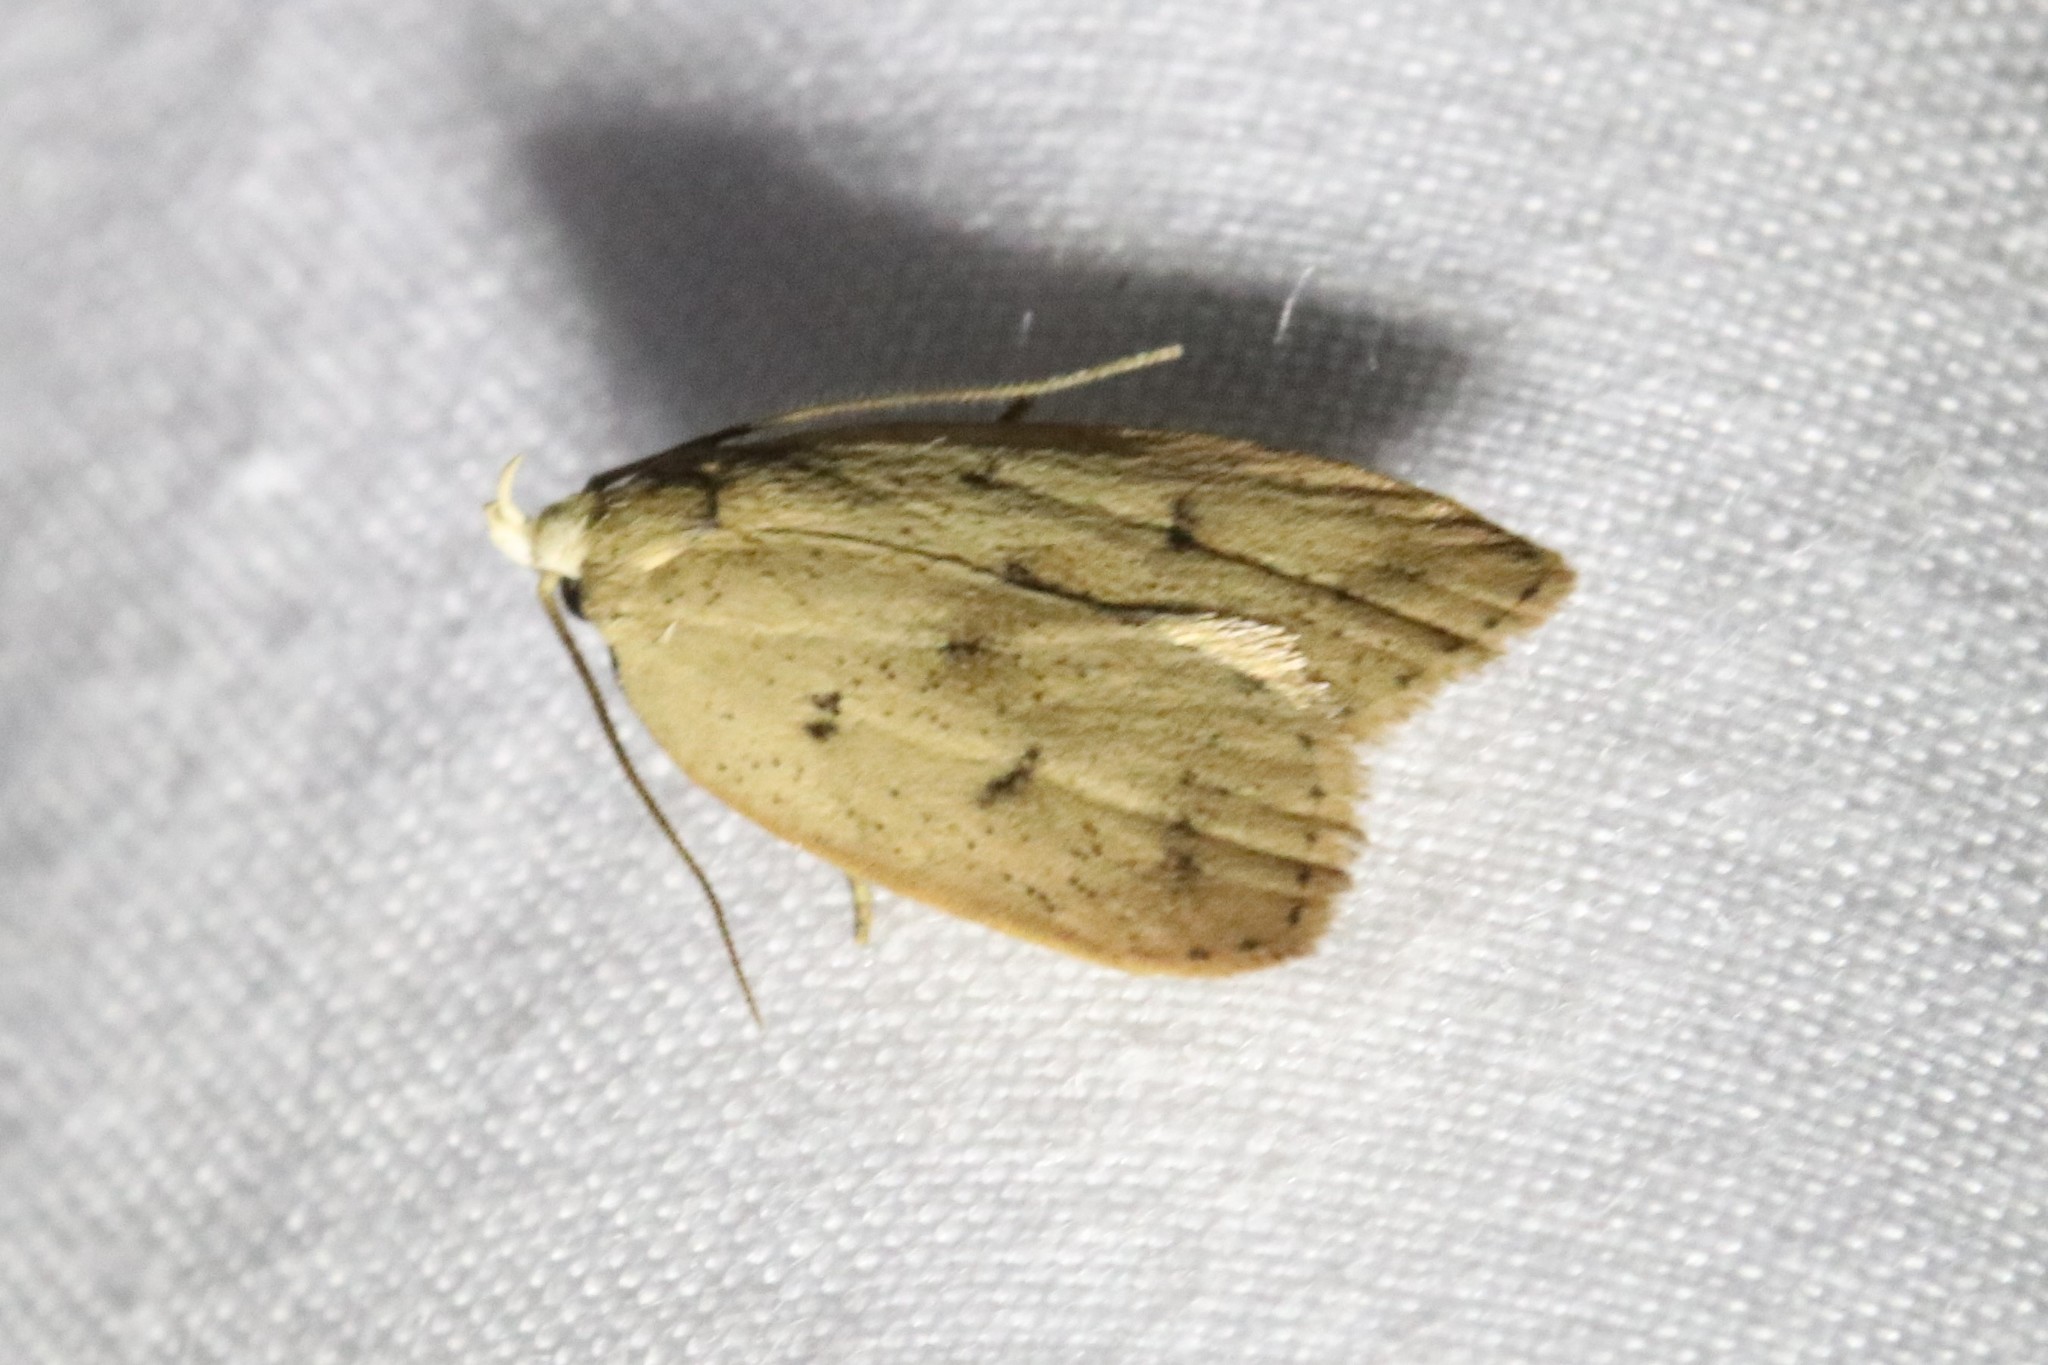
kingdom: Animalia
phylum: Arthropoda
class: Insecta
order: Lepidoptera
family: Peleopodidae
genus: Machimia
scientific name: Machimia tentoriferella
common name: Gold-striped leaftier moth
